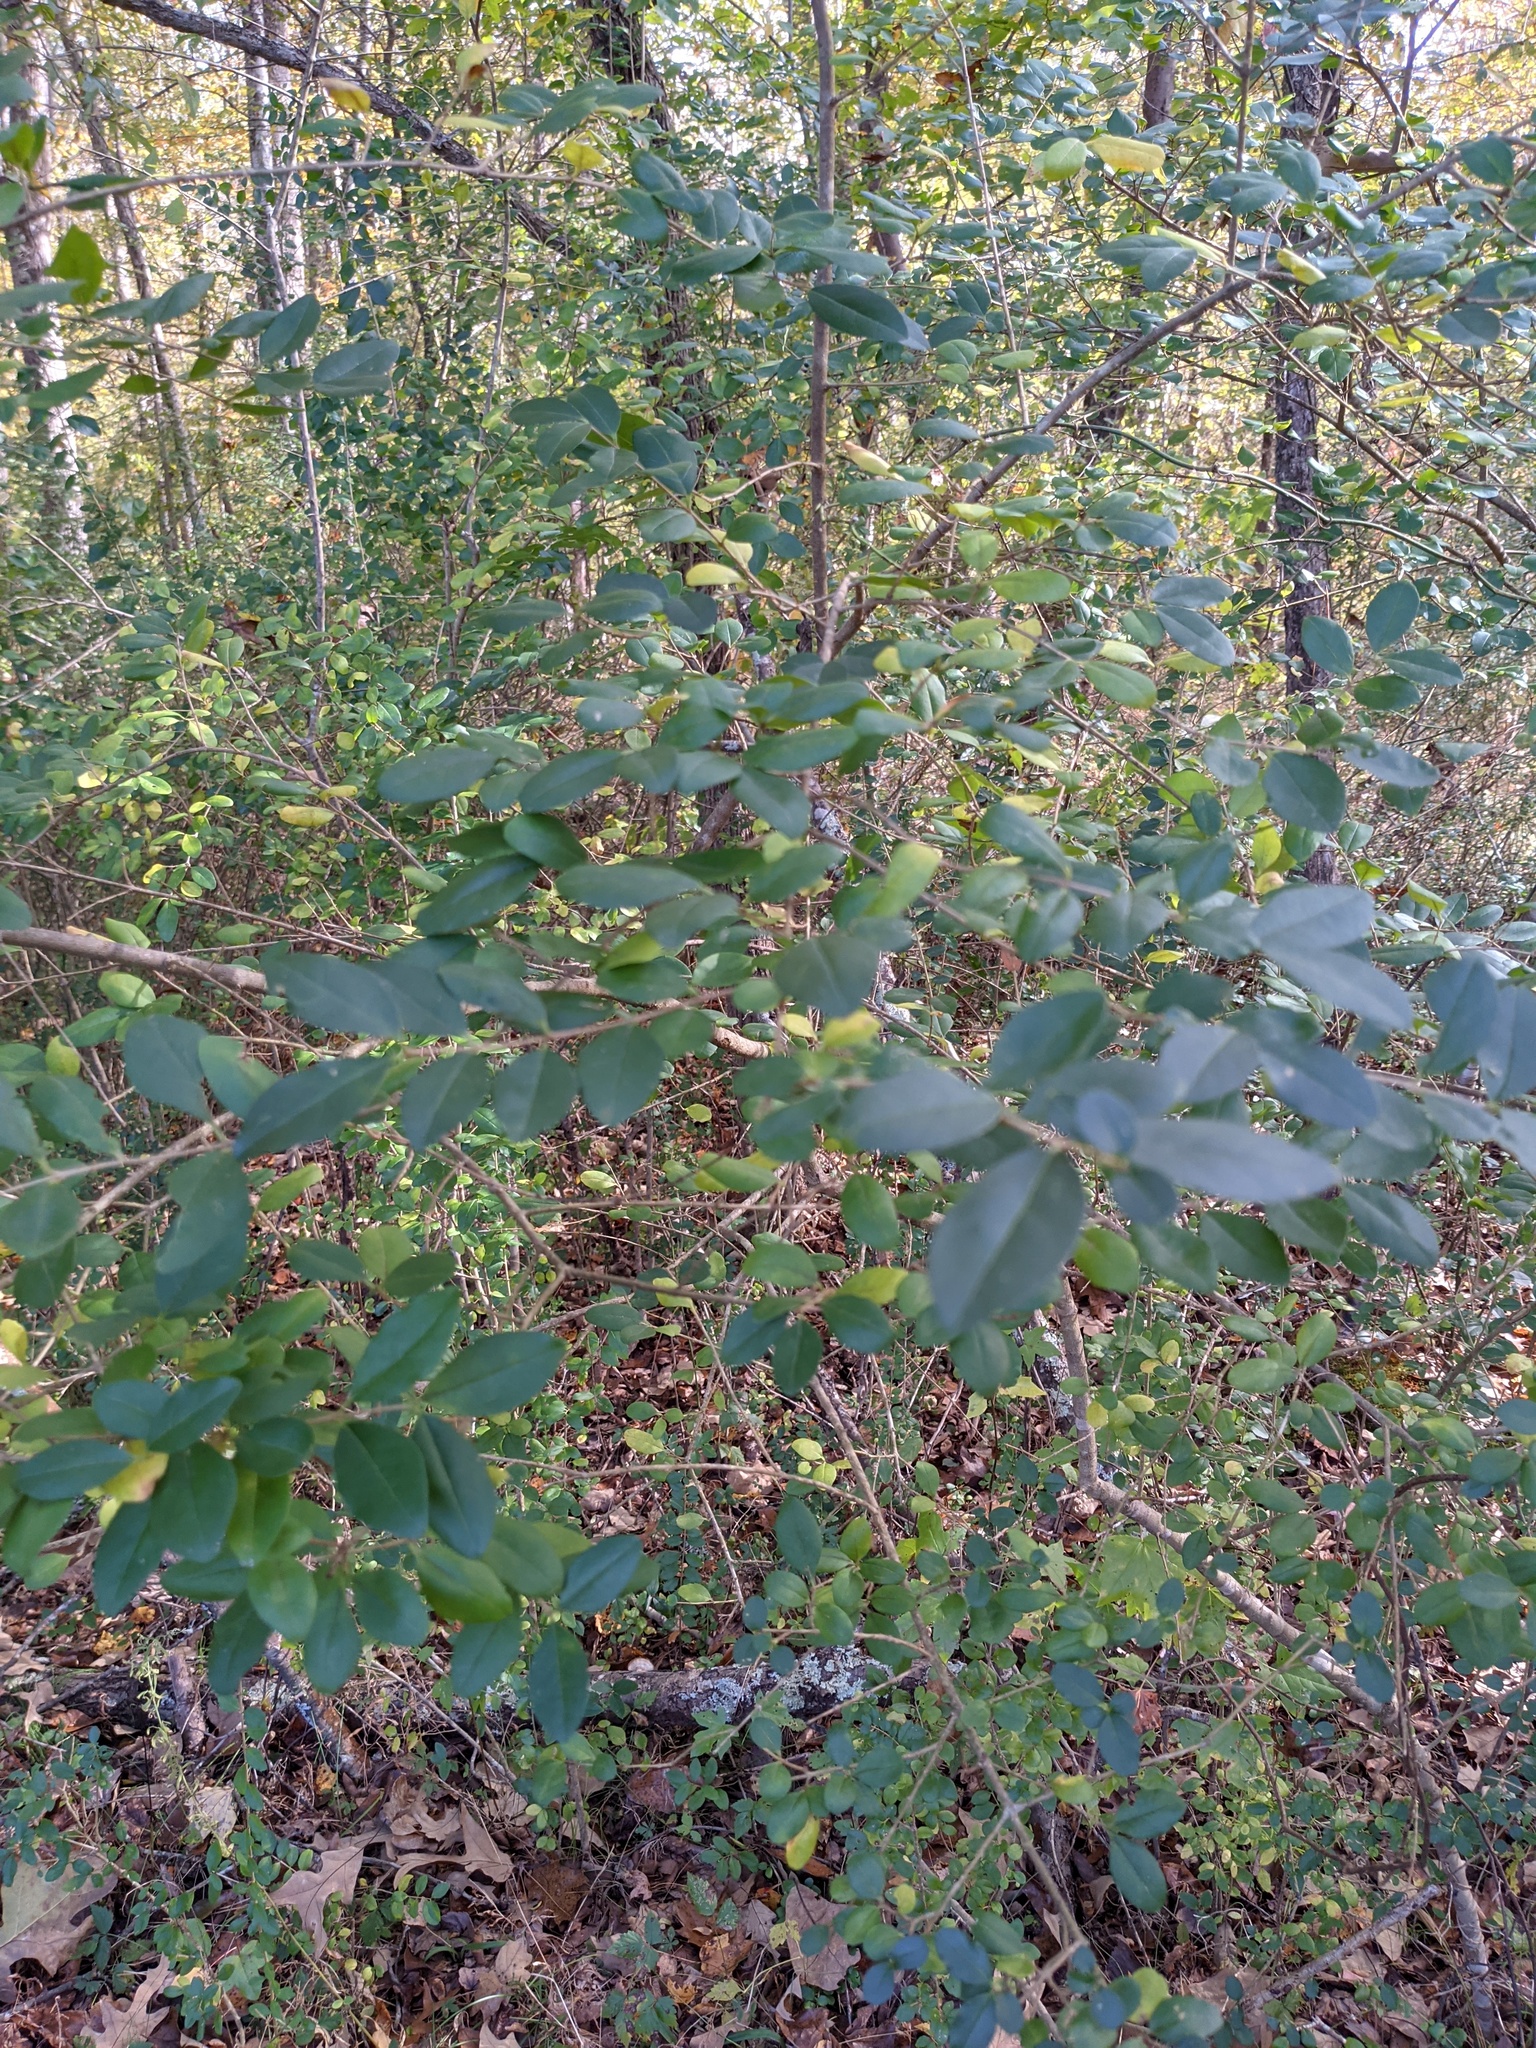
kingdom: Plantae
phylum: Tracheophyta
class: Magnoliopsida
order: Lamiales
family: Oleaceae
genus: Ligustrum
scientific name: Ligustrum sinense
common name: Chinese privet
